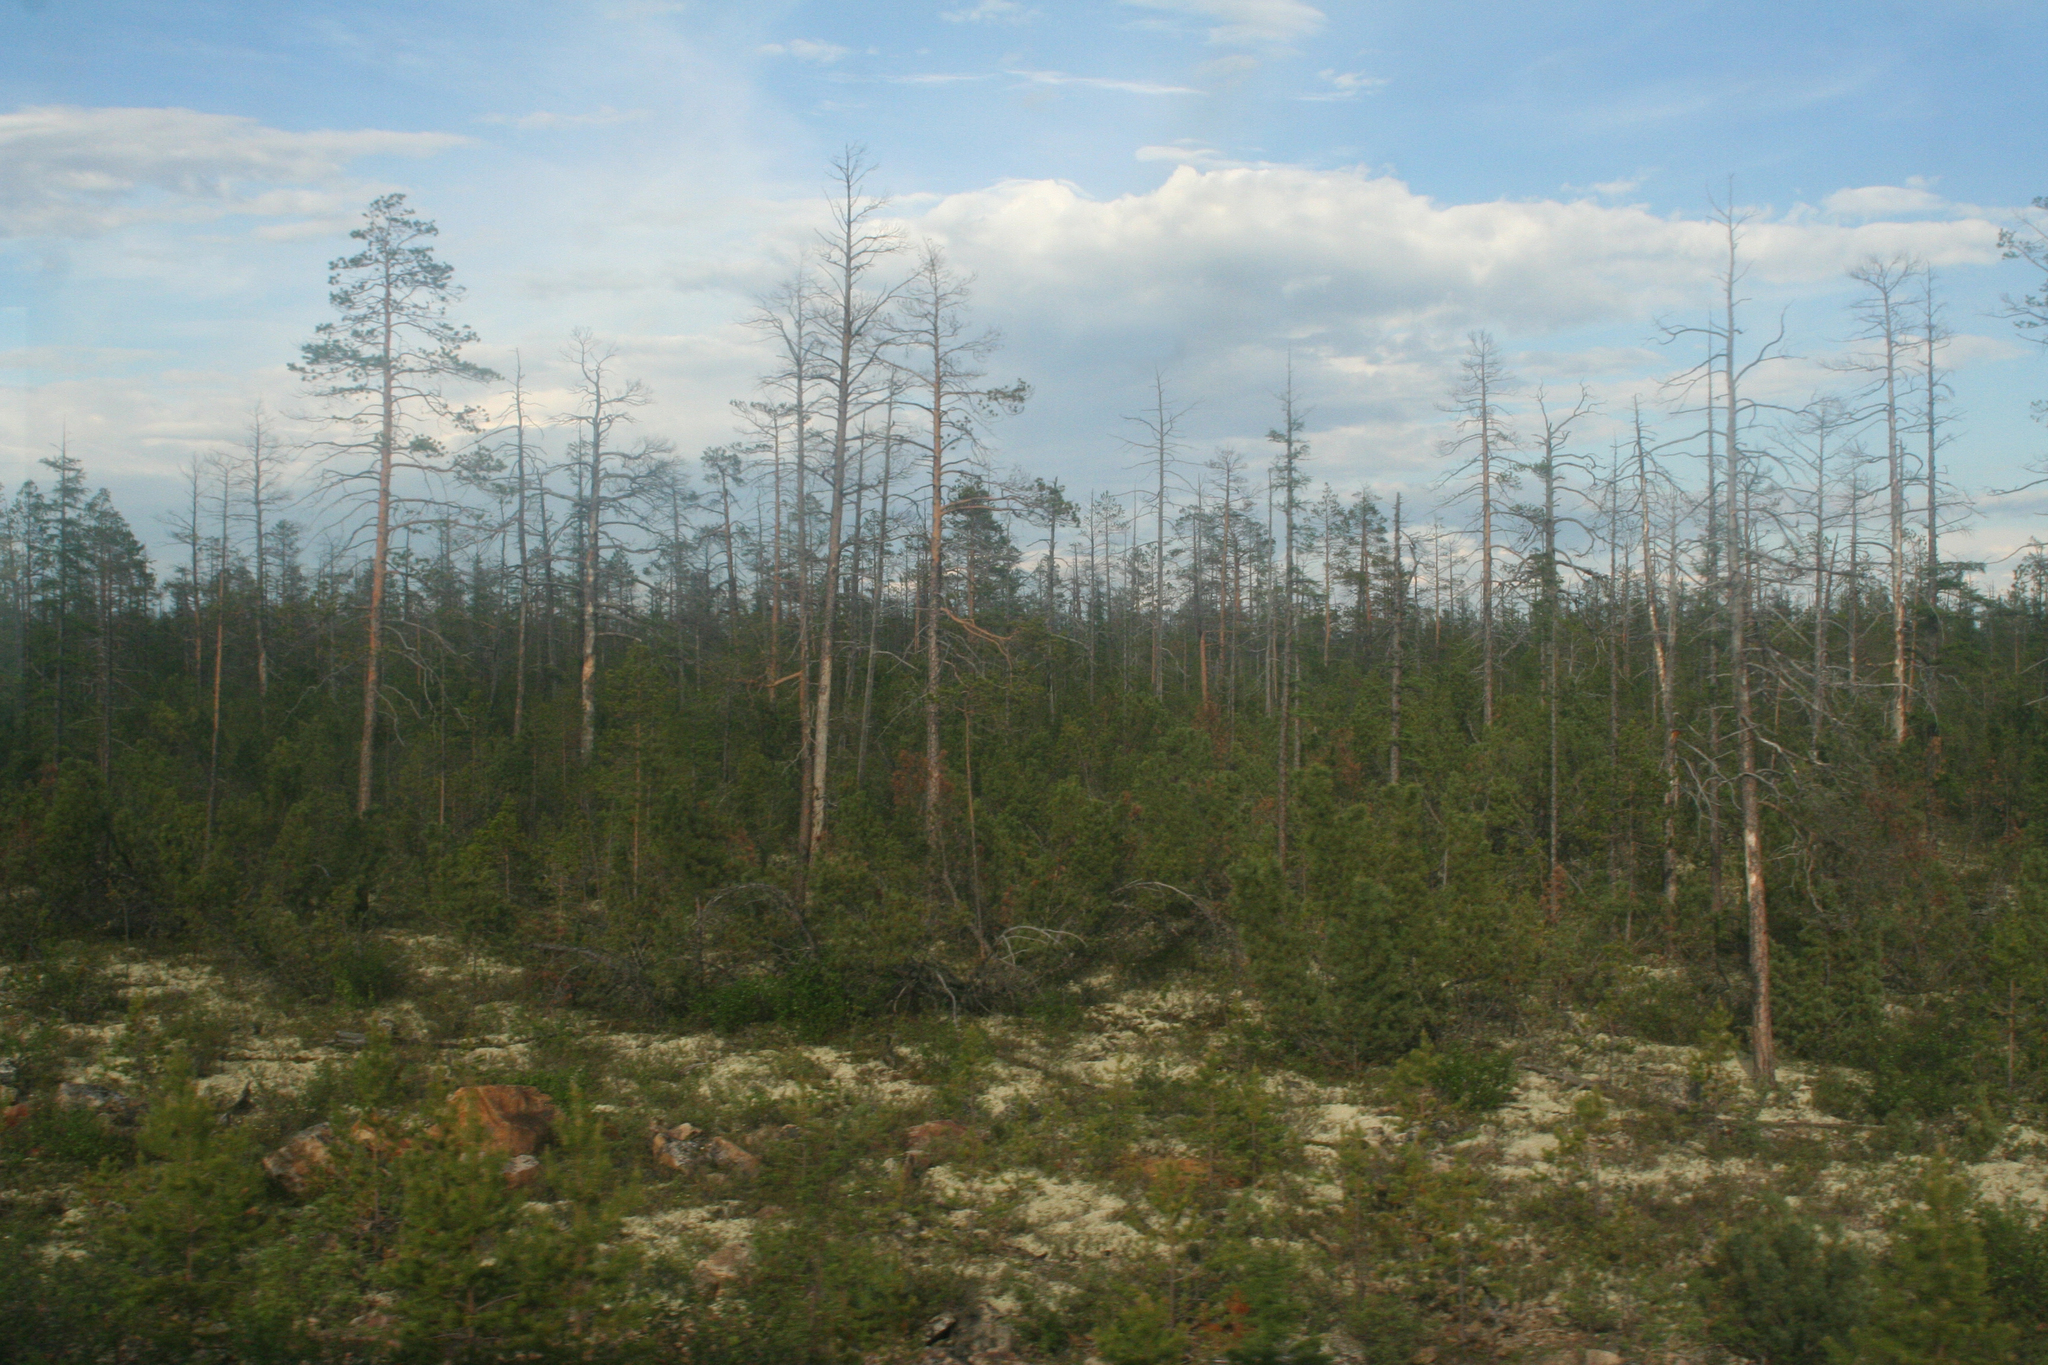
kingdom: Plantae
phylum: Tracheophyta
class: Pinopsida
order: Pinales
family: Pinaceae
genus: Pinus
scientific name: Pinus sylvestris
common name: Scots pine
